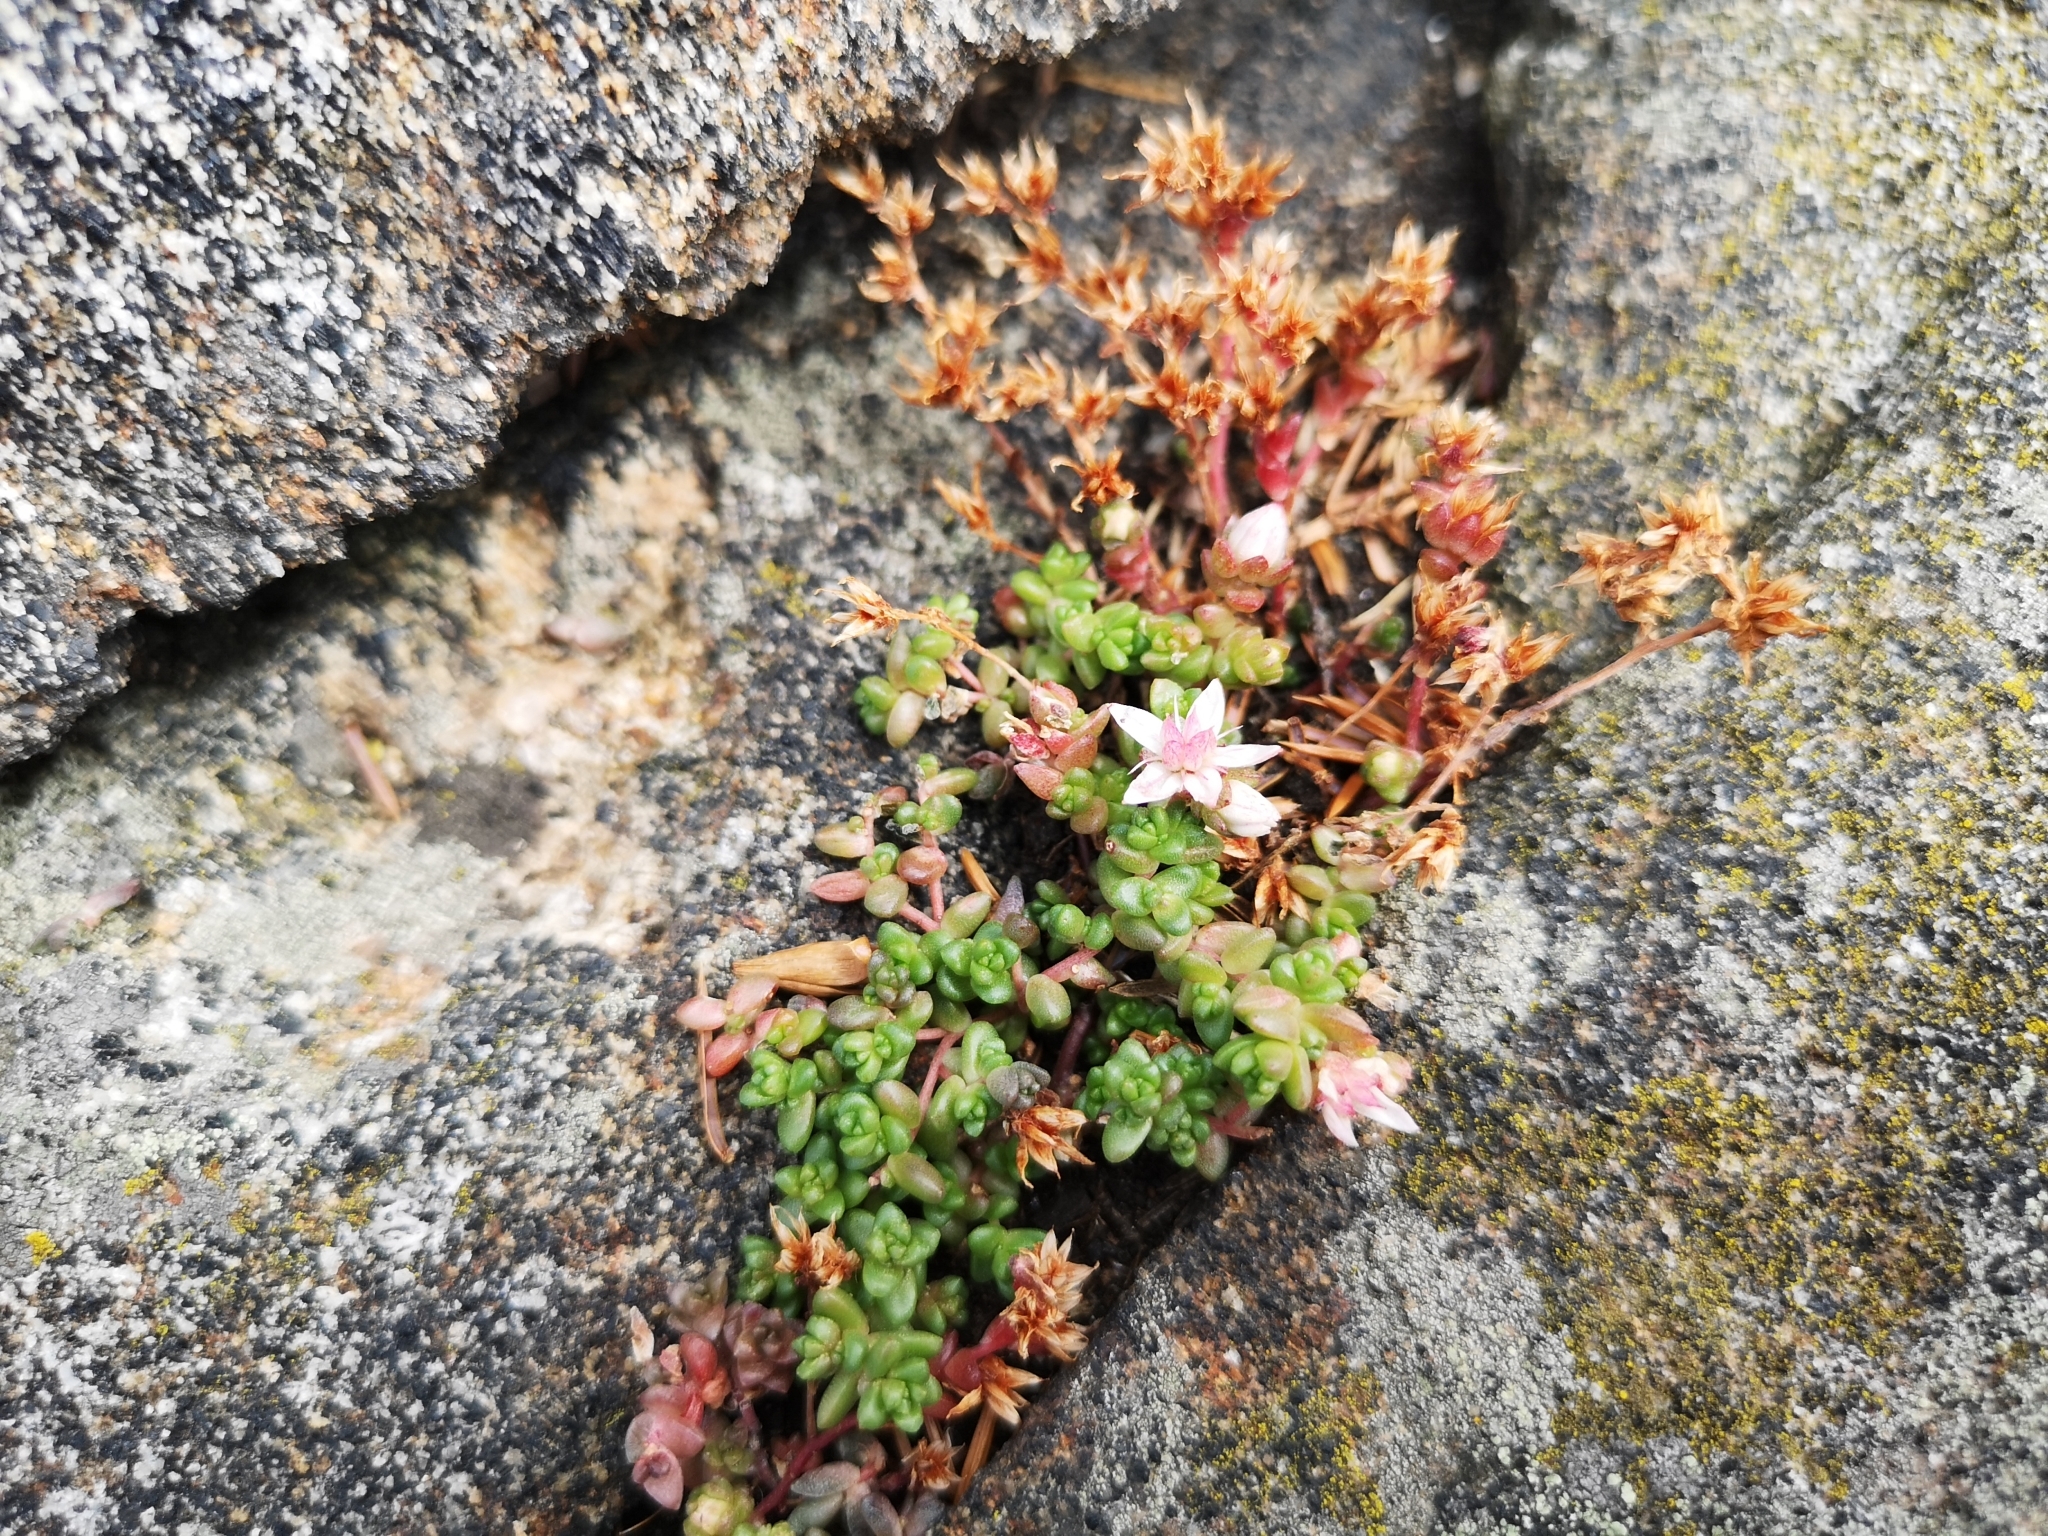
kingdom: Plantae
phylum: Tracheophyta
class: Magnoliopsida
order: Saxifragales
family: Crassulaceae
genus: Sedum
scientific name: Sedum anglicum
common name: English stonecrop
